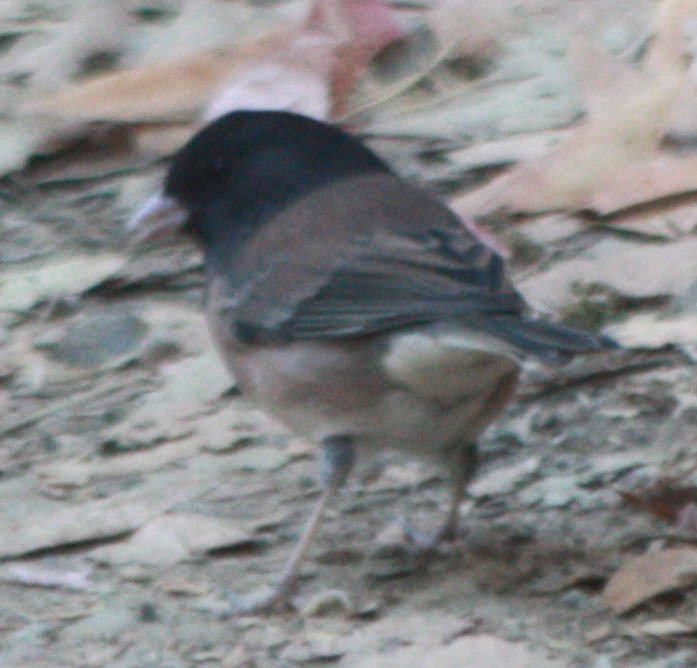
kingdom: Animalia
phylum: Chordata
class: Aves
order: Passeriformes
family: Passerellidae
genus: Junco
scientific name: Junco hyemalis
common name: Dark-eyed junco
